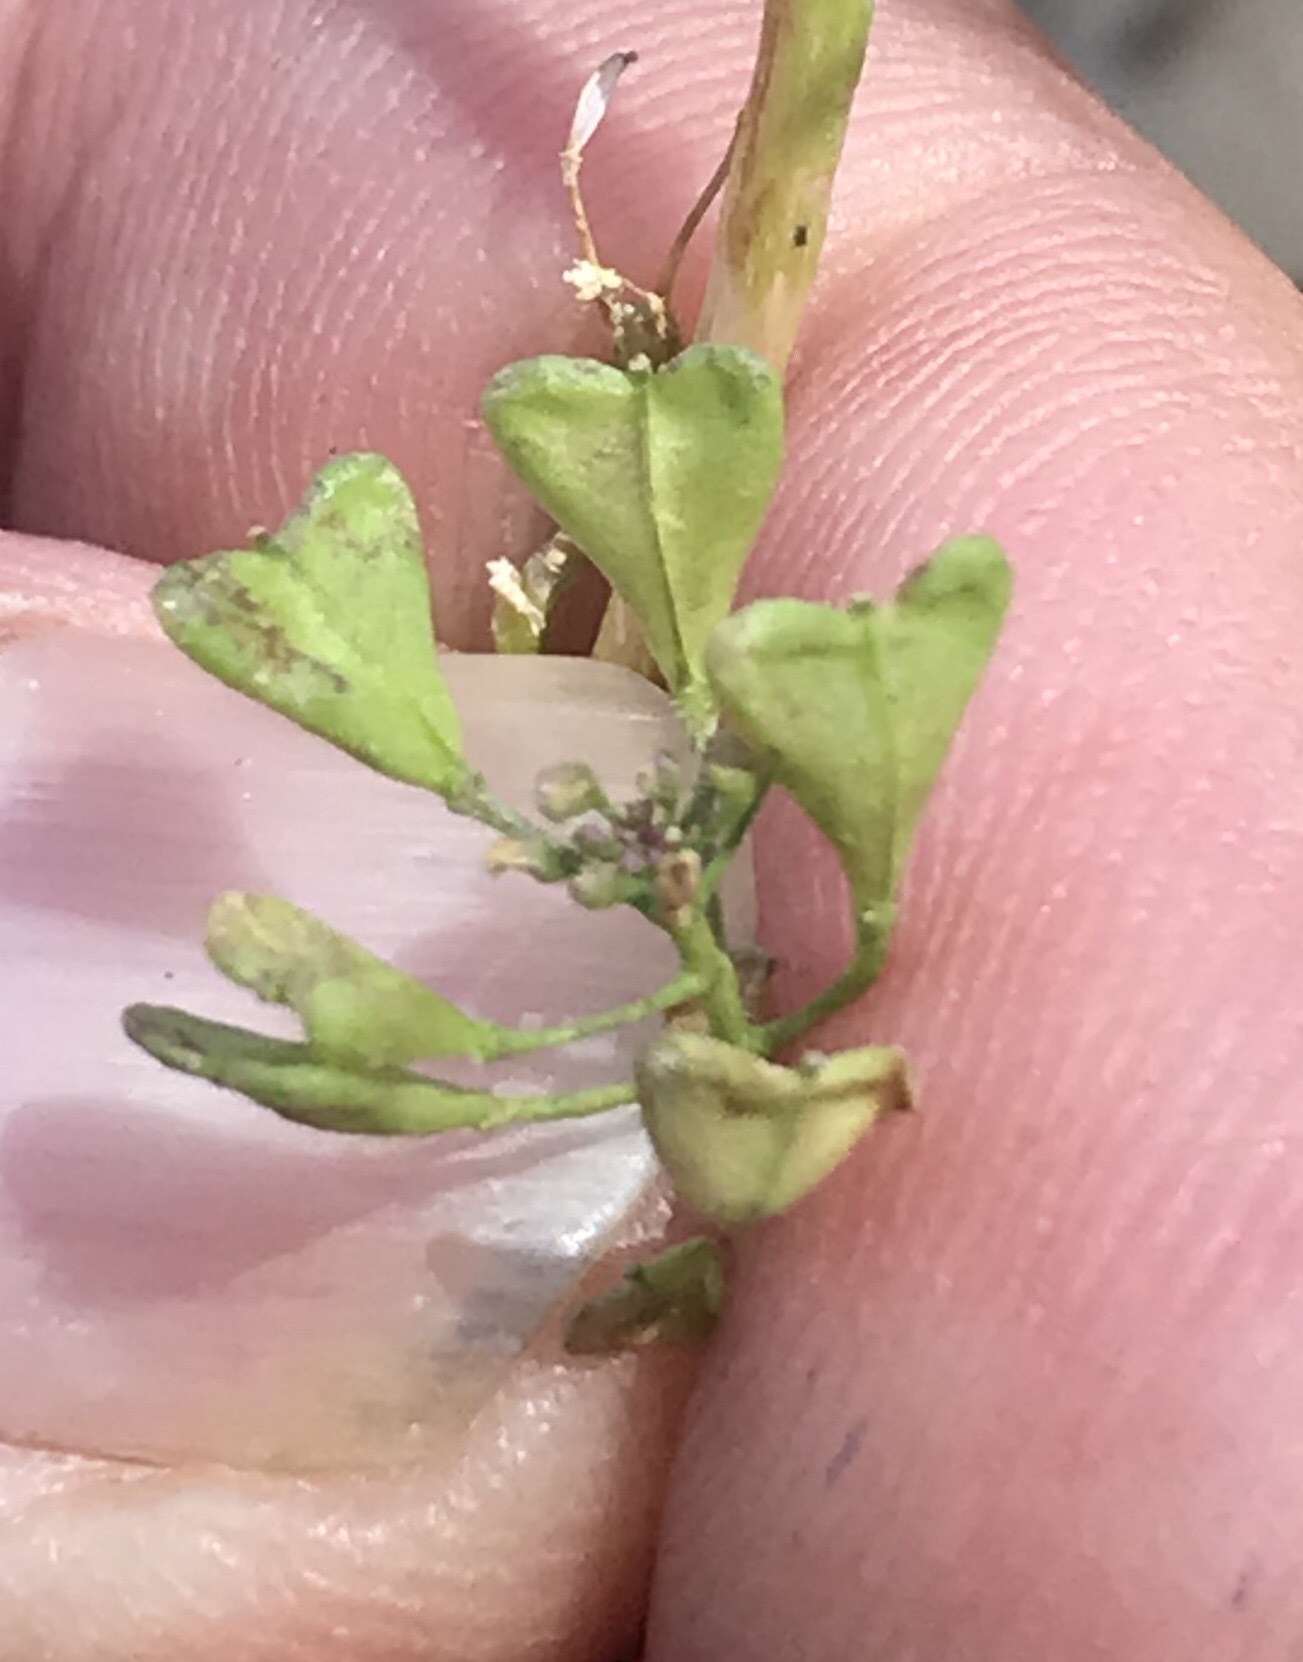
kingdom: Plantae
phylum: Tracheophyta
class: Magnoliopsida
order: Brassicales
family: Brassicaceae
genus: Capsella
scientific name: Capsella bursa-pastoris
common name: Shepherd's purse
